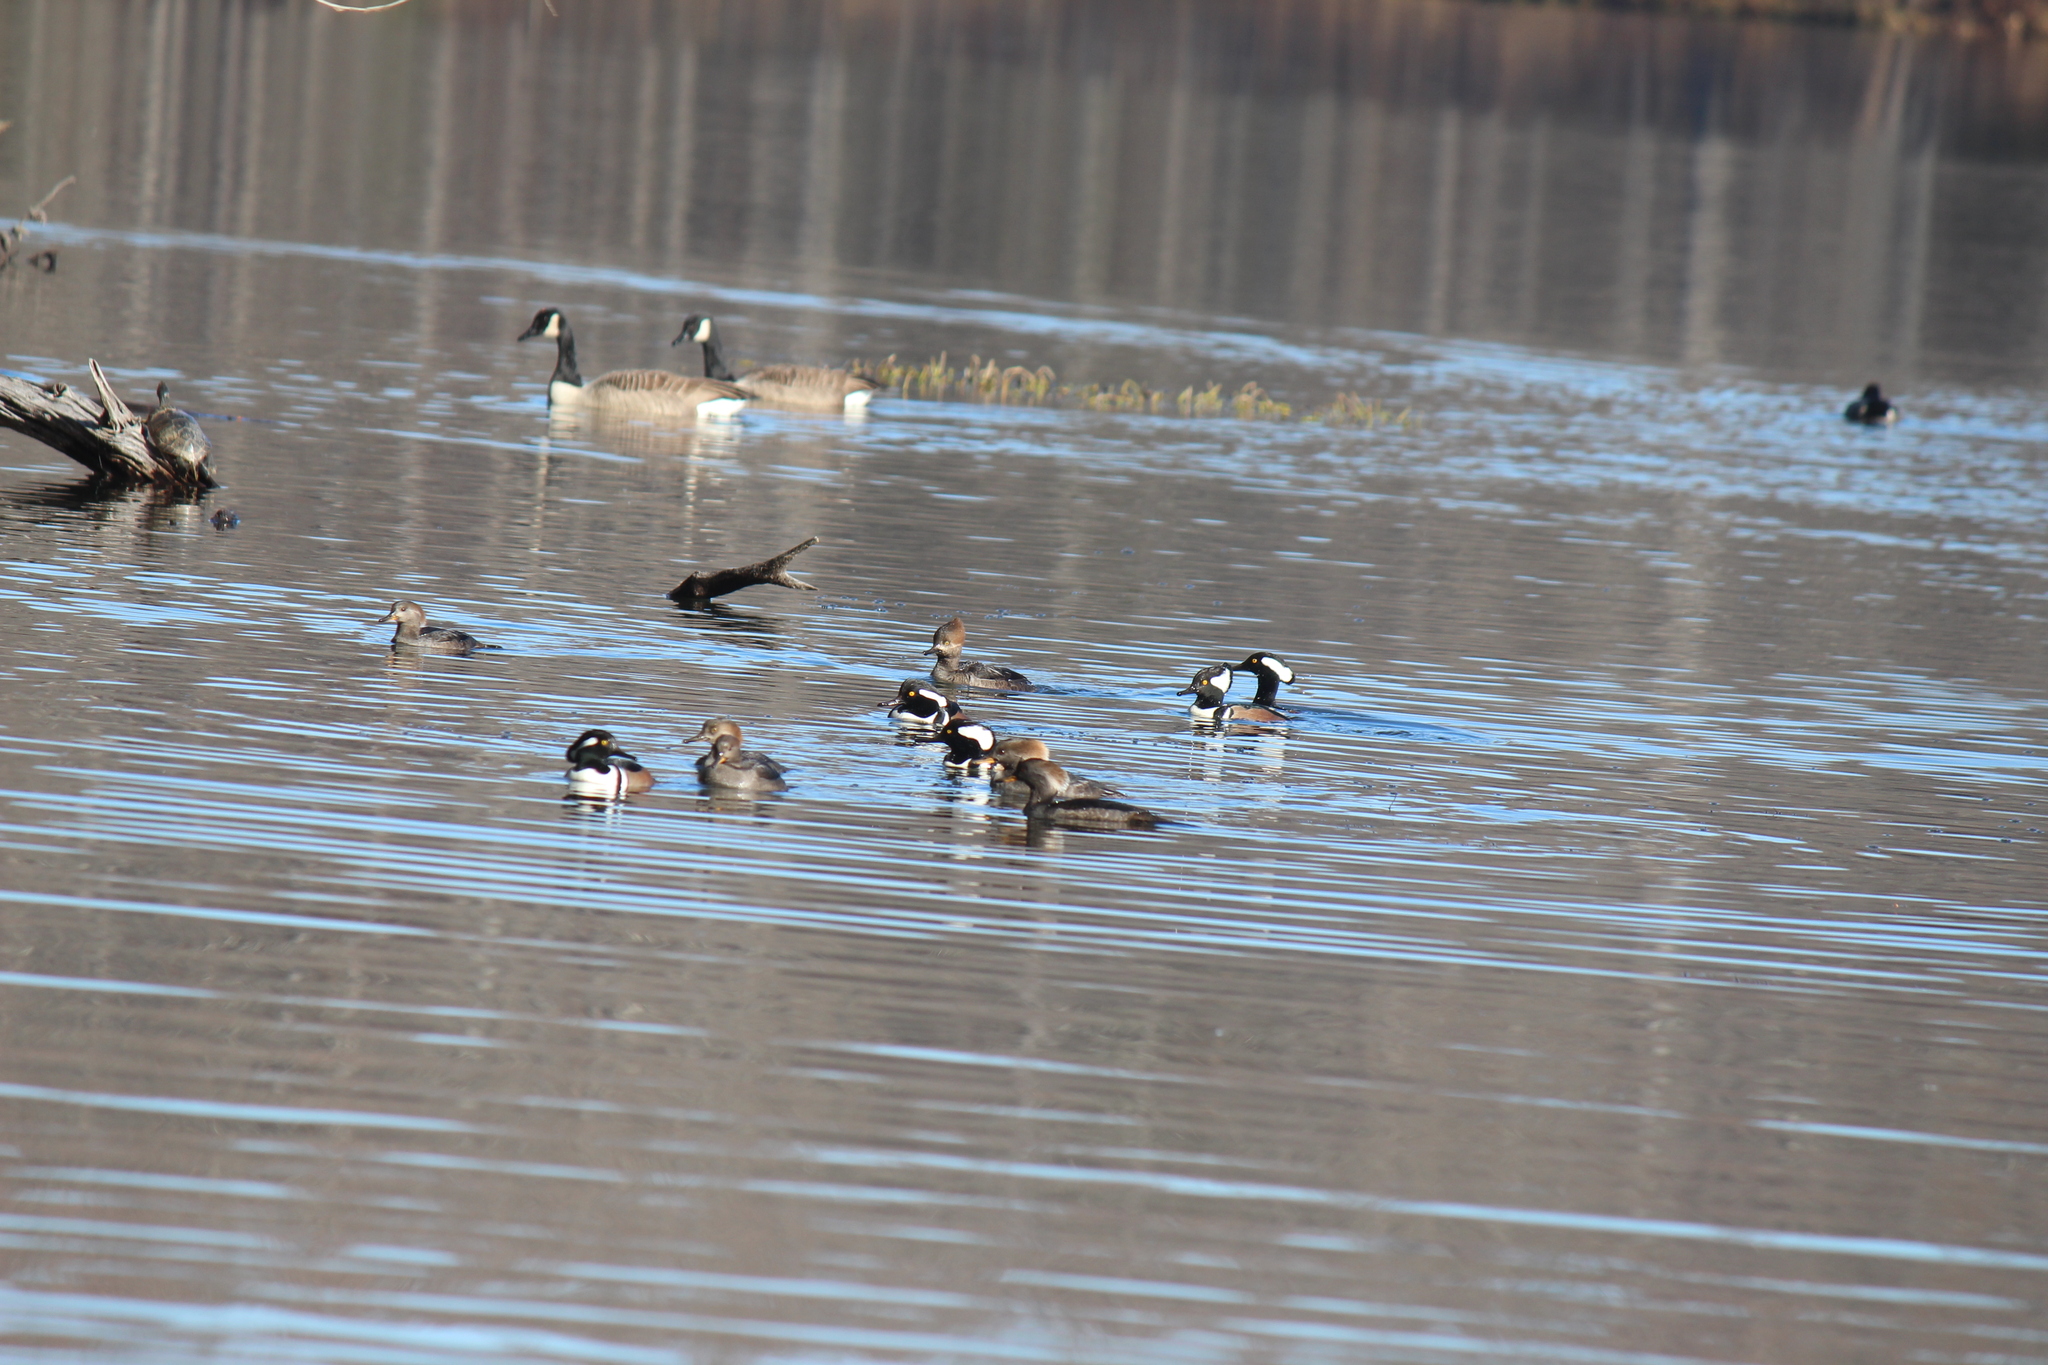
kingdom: Animalia
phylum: Chordata
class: Aves
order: Anseriformes
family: Anatidae
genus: Lophodytes
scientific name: Lophodytes cucullatus
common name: Hooded merganser
